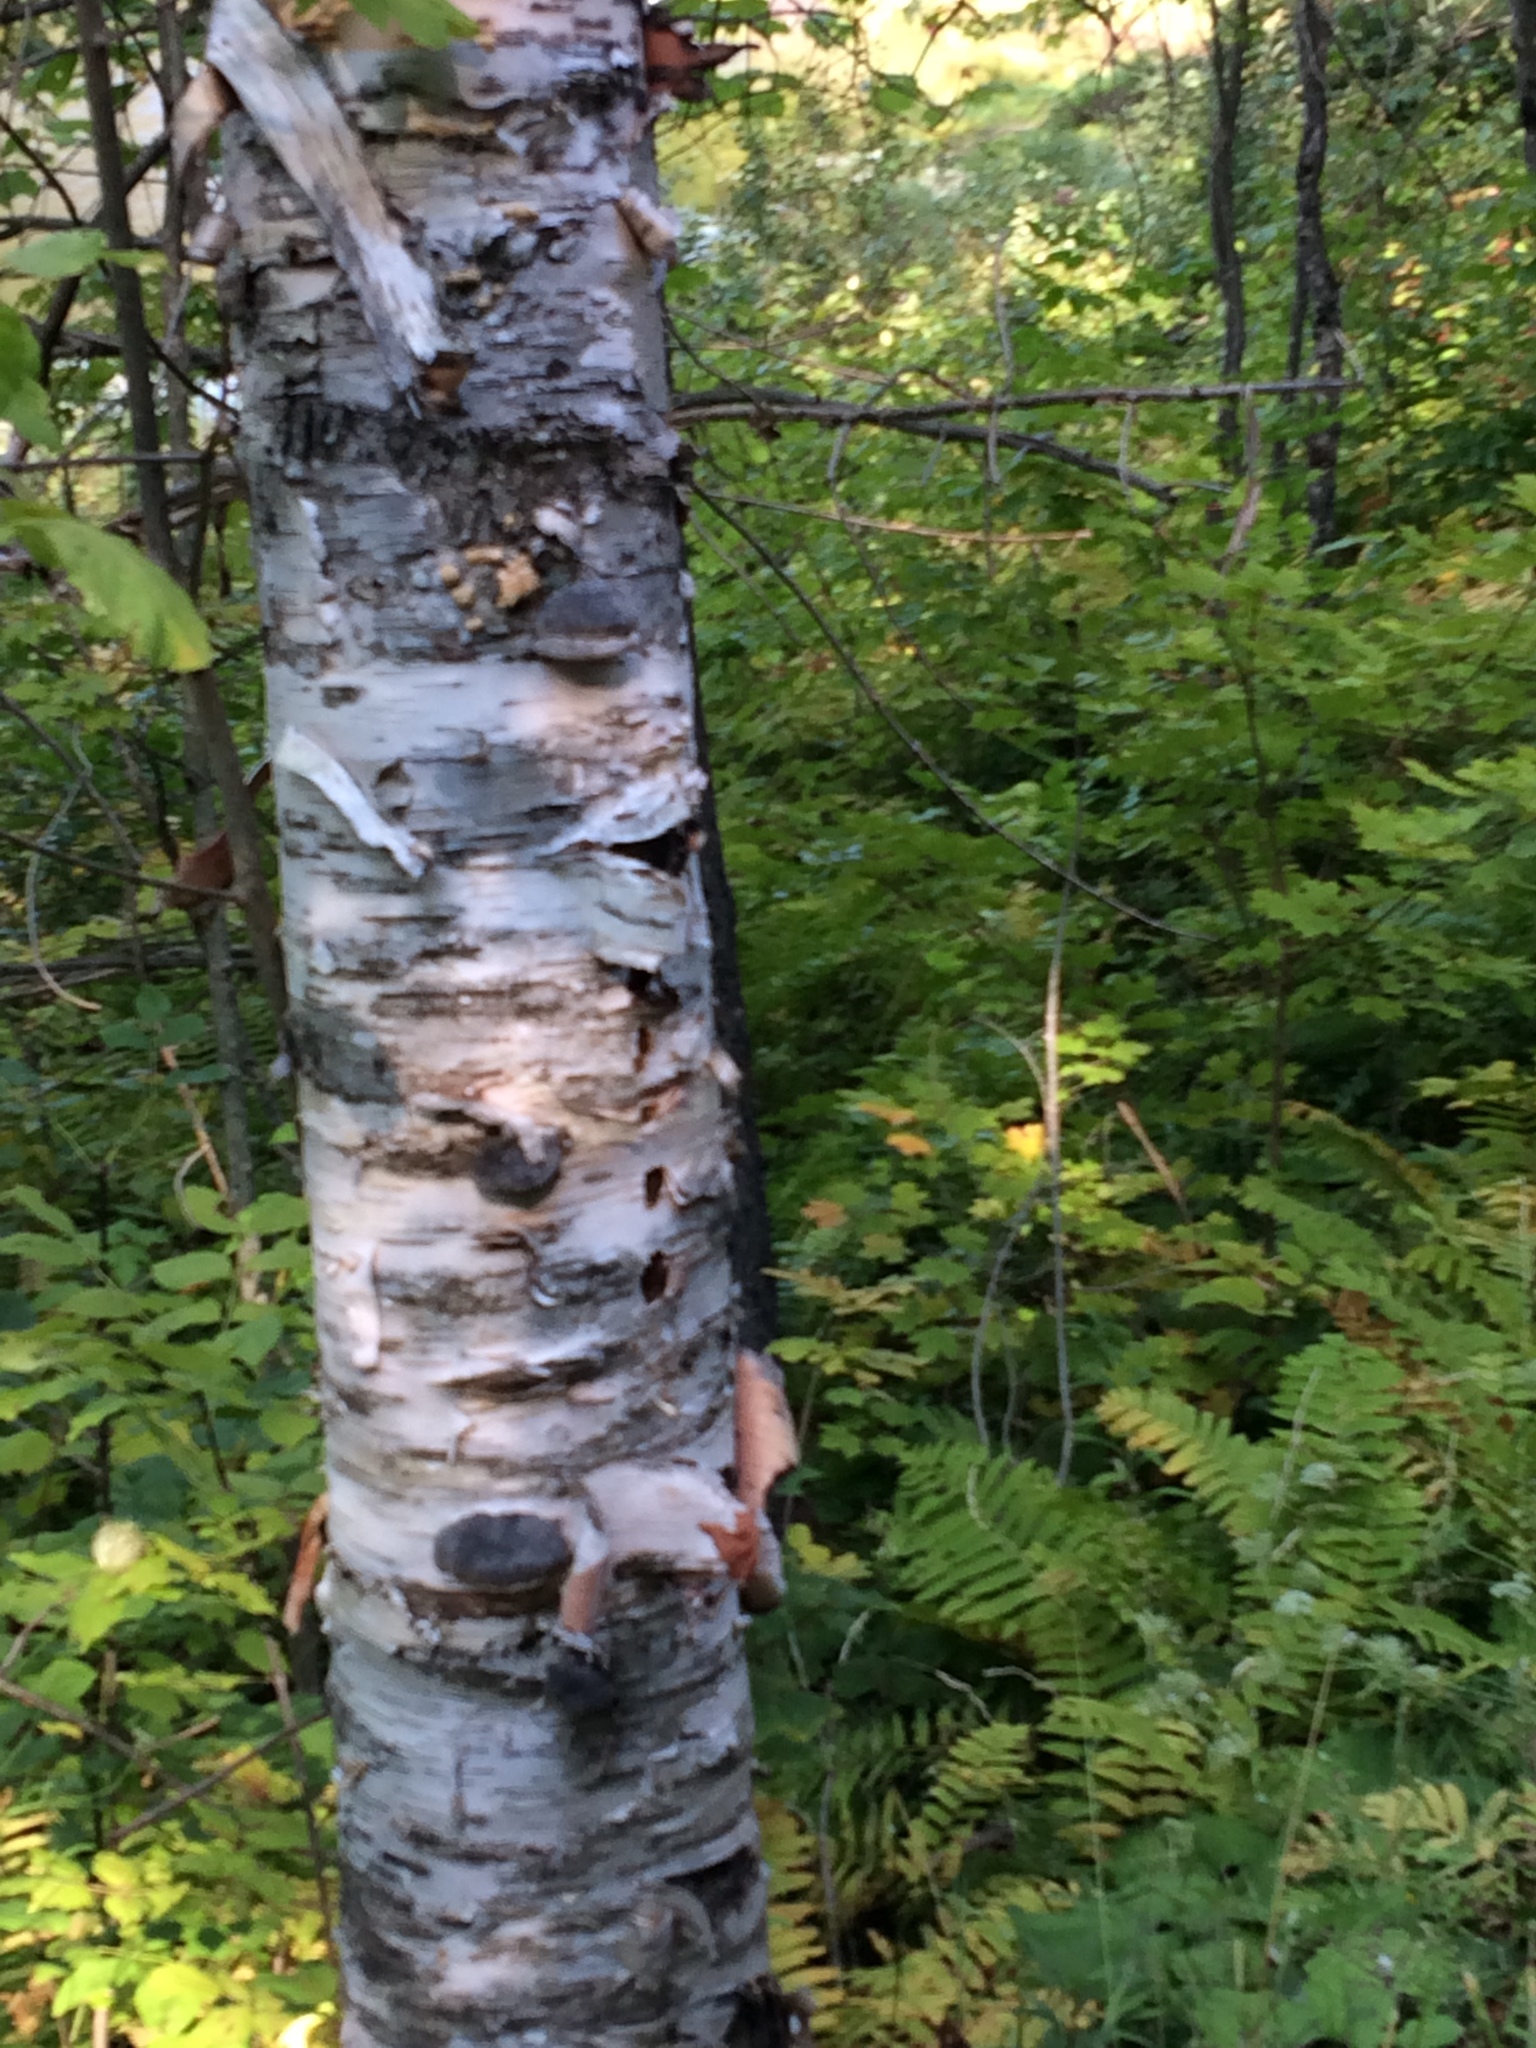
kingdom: Plantae
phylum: Tracheophyta
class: Magnoliopsida
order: Fagales
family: Betulaceae
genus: Betula
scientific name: Betula papyrifera
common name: Paper birch
